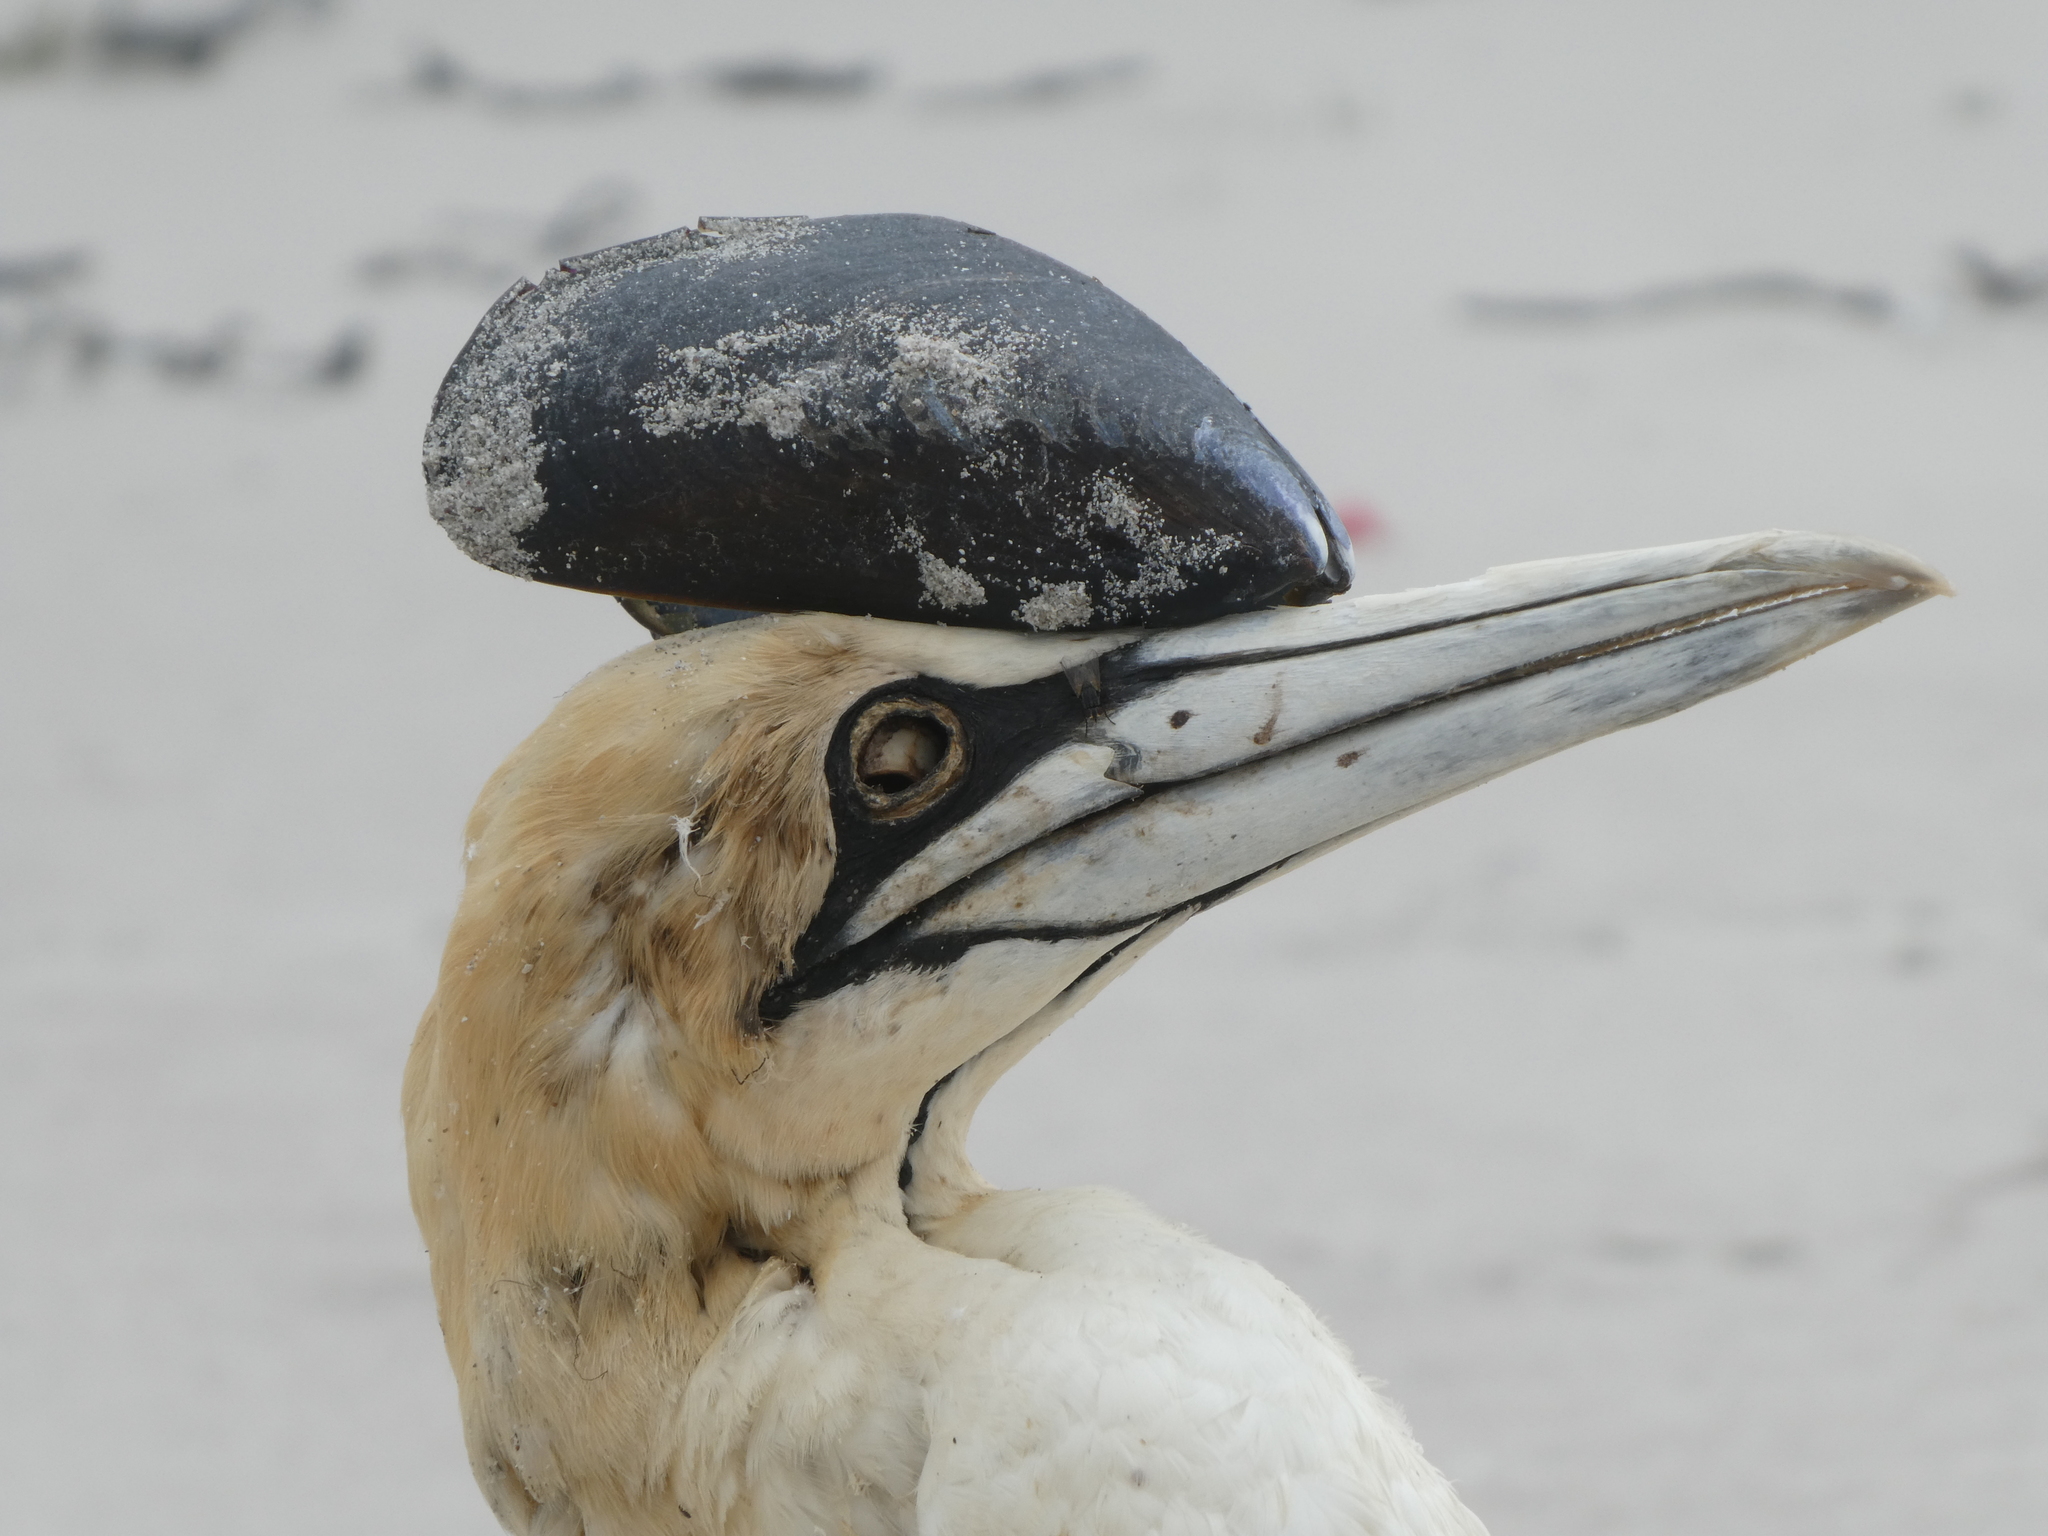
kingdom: Animalia
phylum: Chordata
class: Aves
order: Suliformes
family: Sulidae
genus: Morus
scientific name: Morus capensis
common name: Cape gannet
